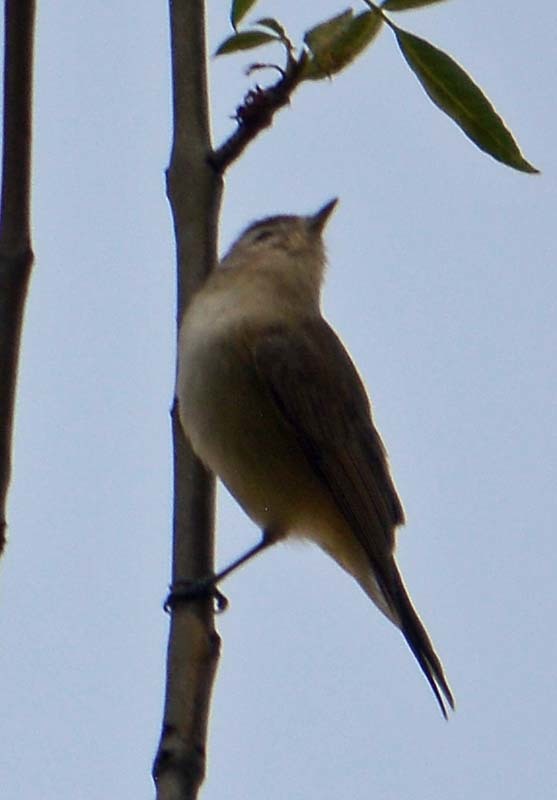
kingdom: Animalia
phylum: Chordata
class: Aves
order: Passeriformes
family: Vireonidae
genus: Vireo
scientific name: Vireo gilvus
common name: Warbling vireo
